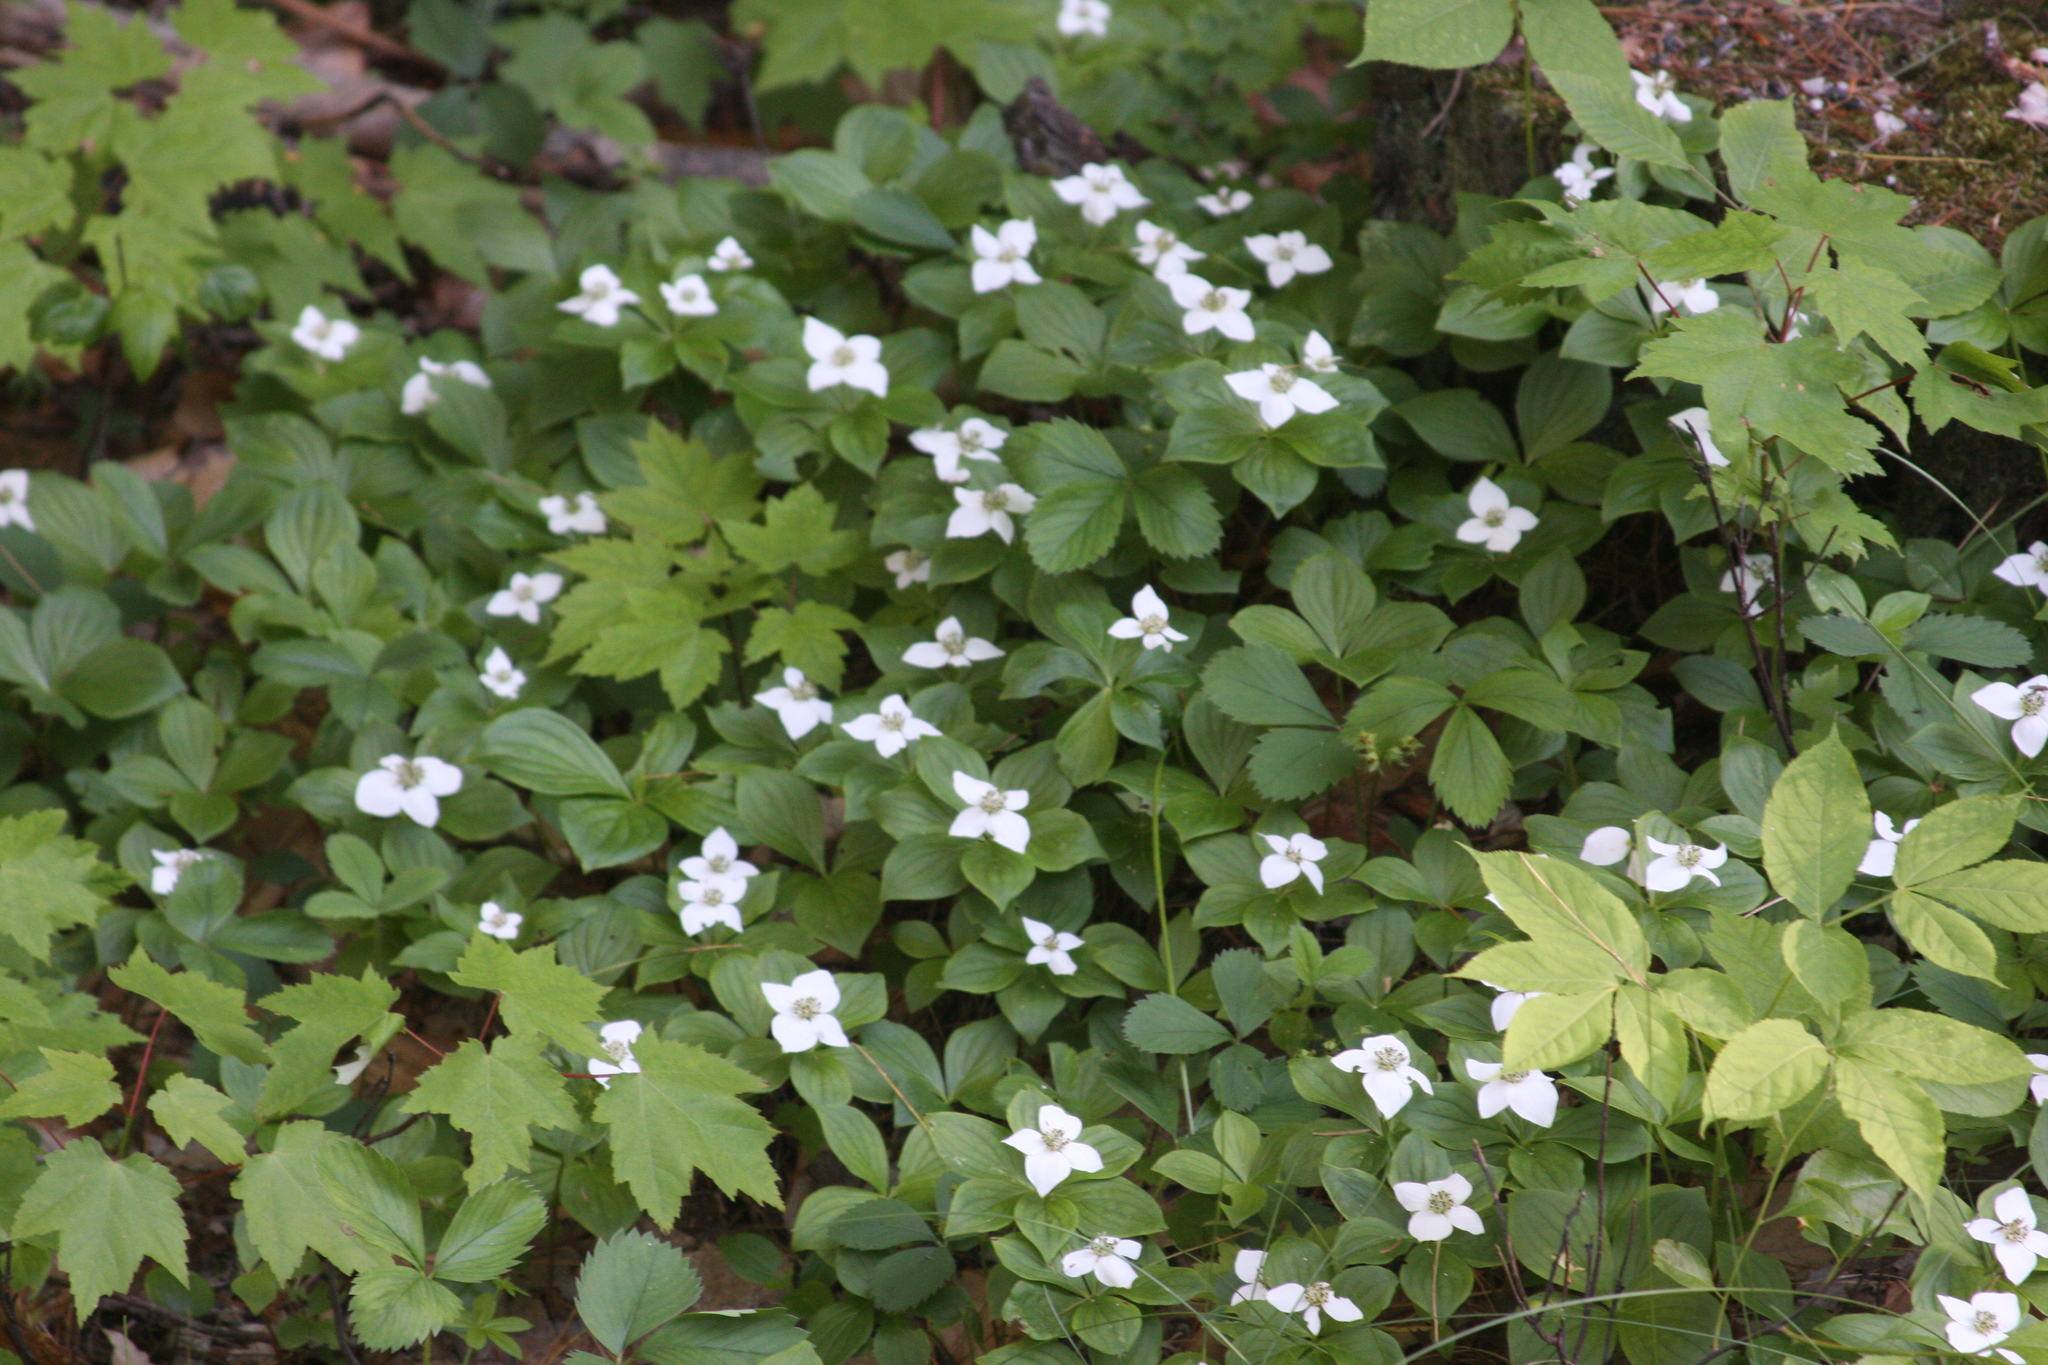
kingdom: Plantae
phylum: Tracheophyta
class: Magnoliopsida
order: Cornales
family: Cornaceae
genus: Cornus
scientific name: Cornus canadensis
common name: Creeping dogwood
